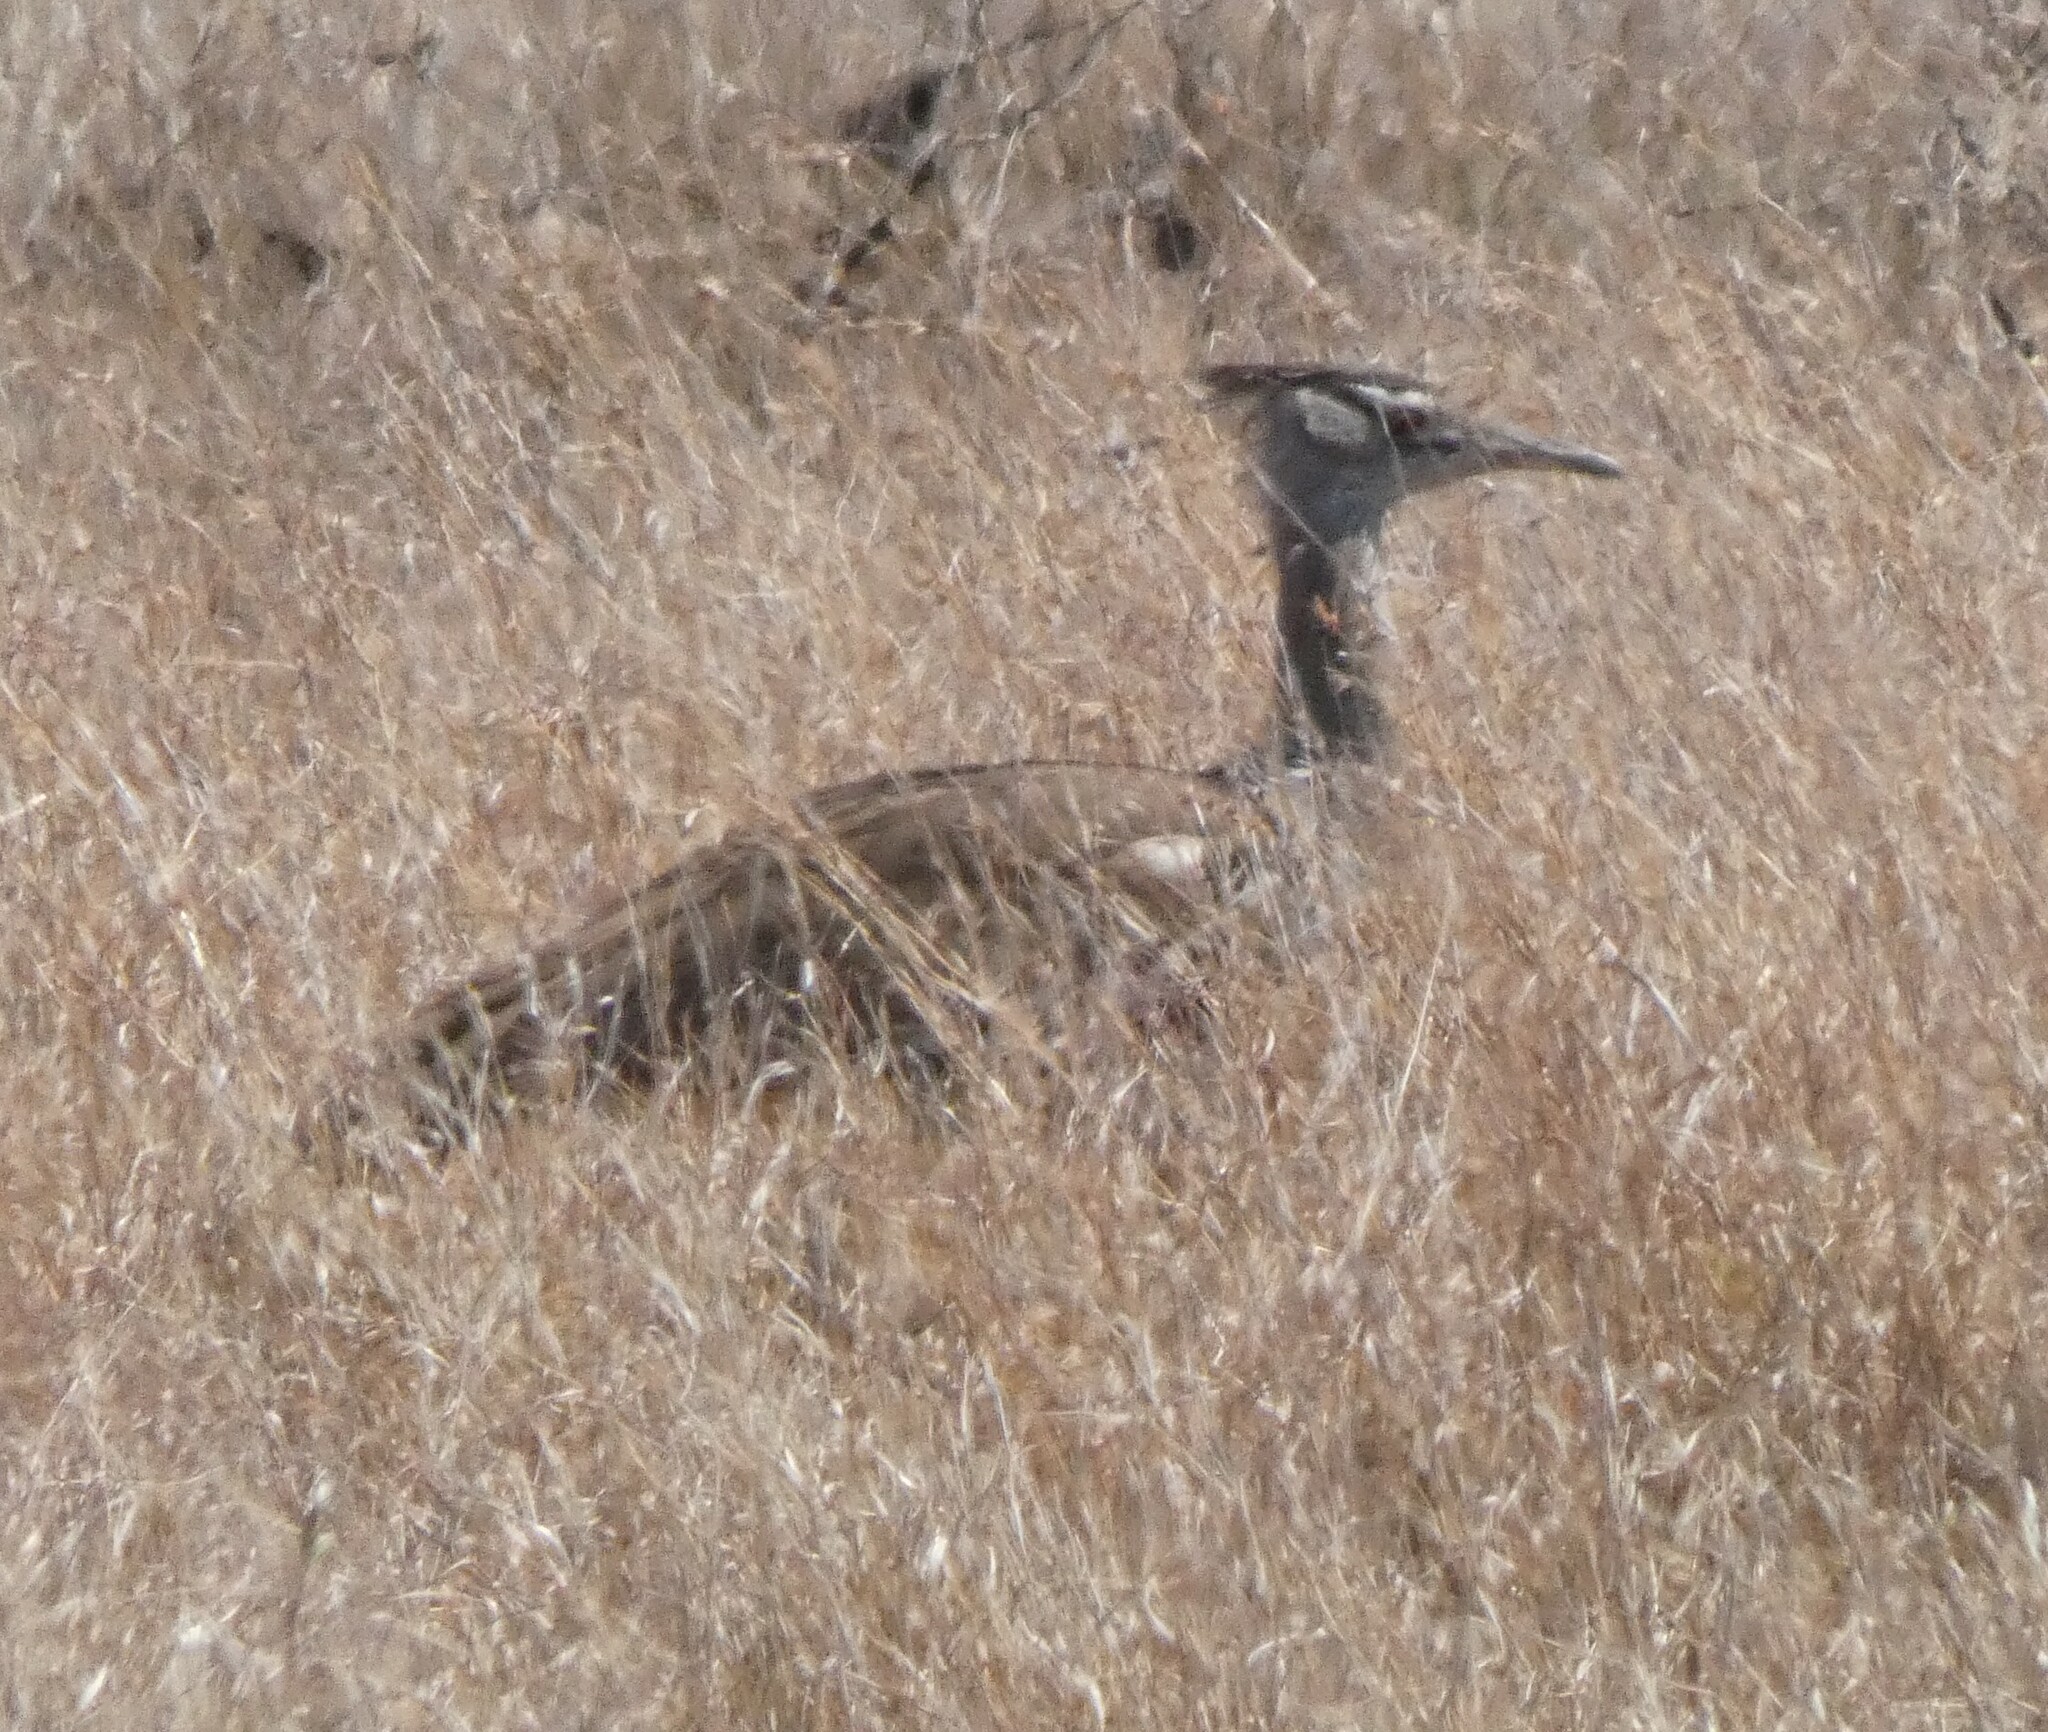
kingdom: Animalia
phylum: Chordata
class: Aves
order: Otidiformes
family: Otididae
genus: Ardeotis
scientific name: Ardeotis kori
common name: Kori bustard
